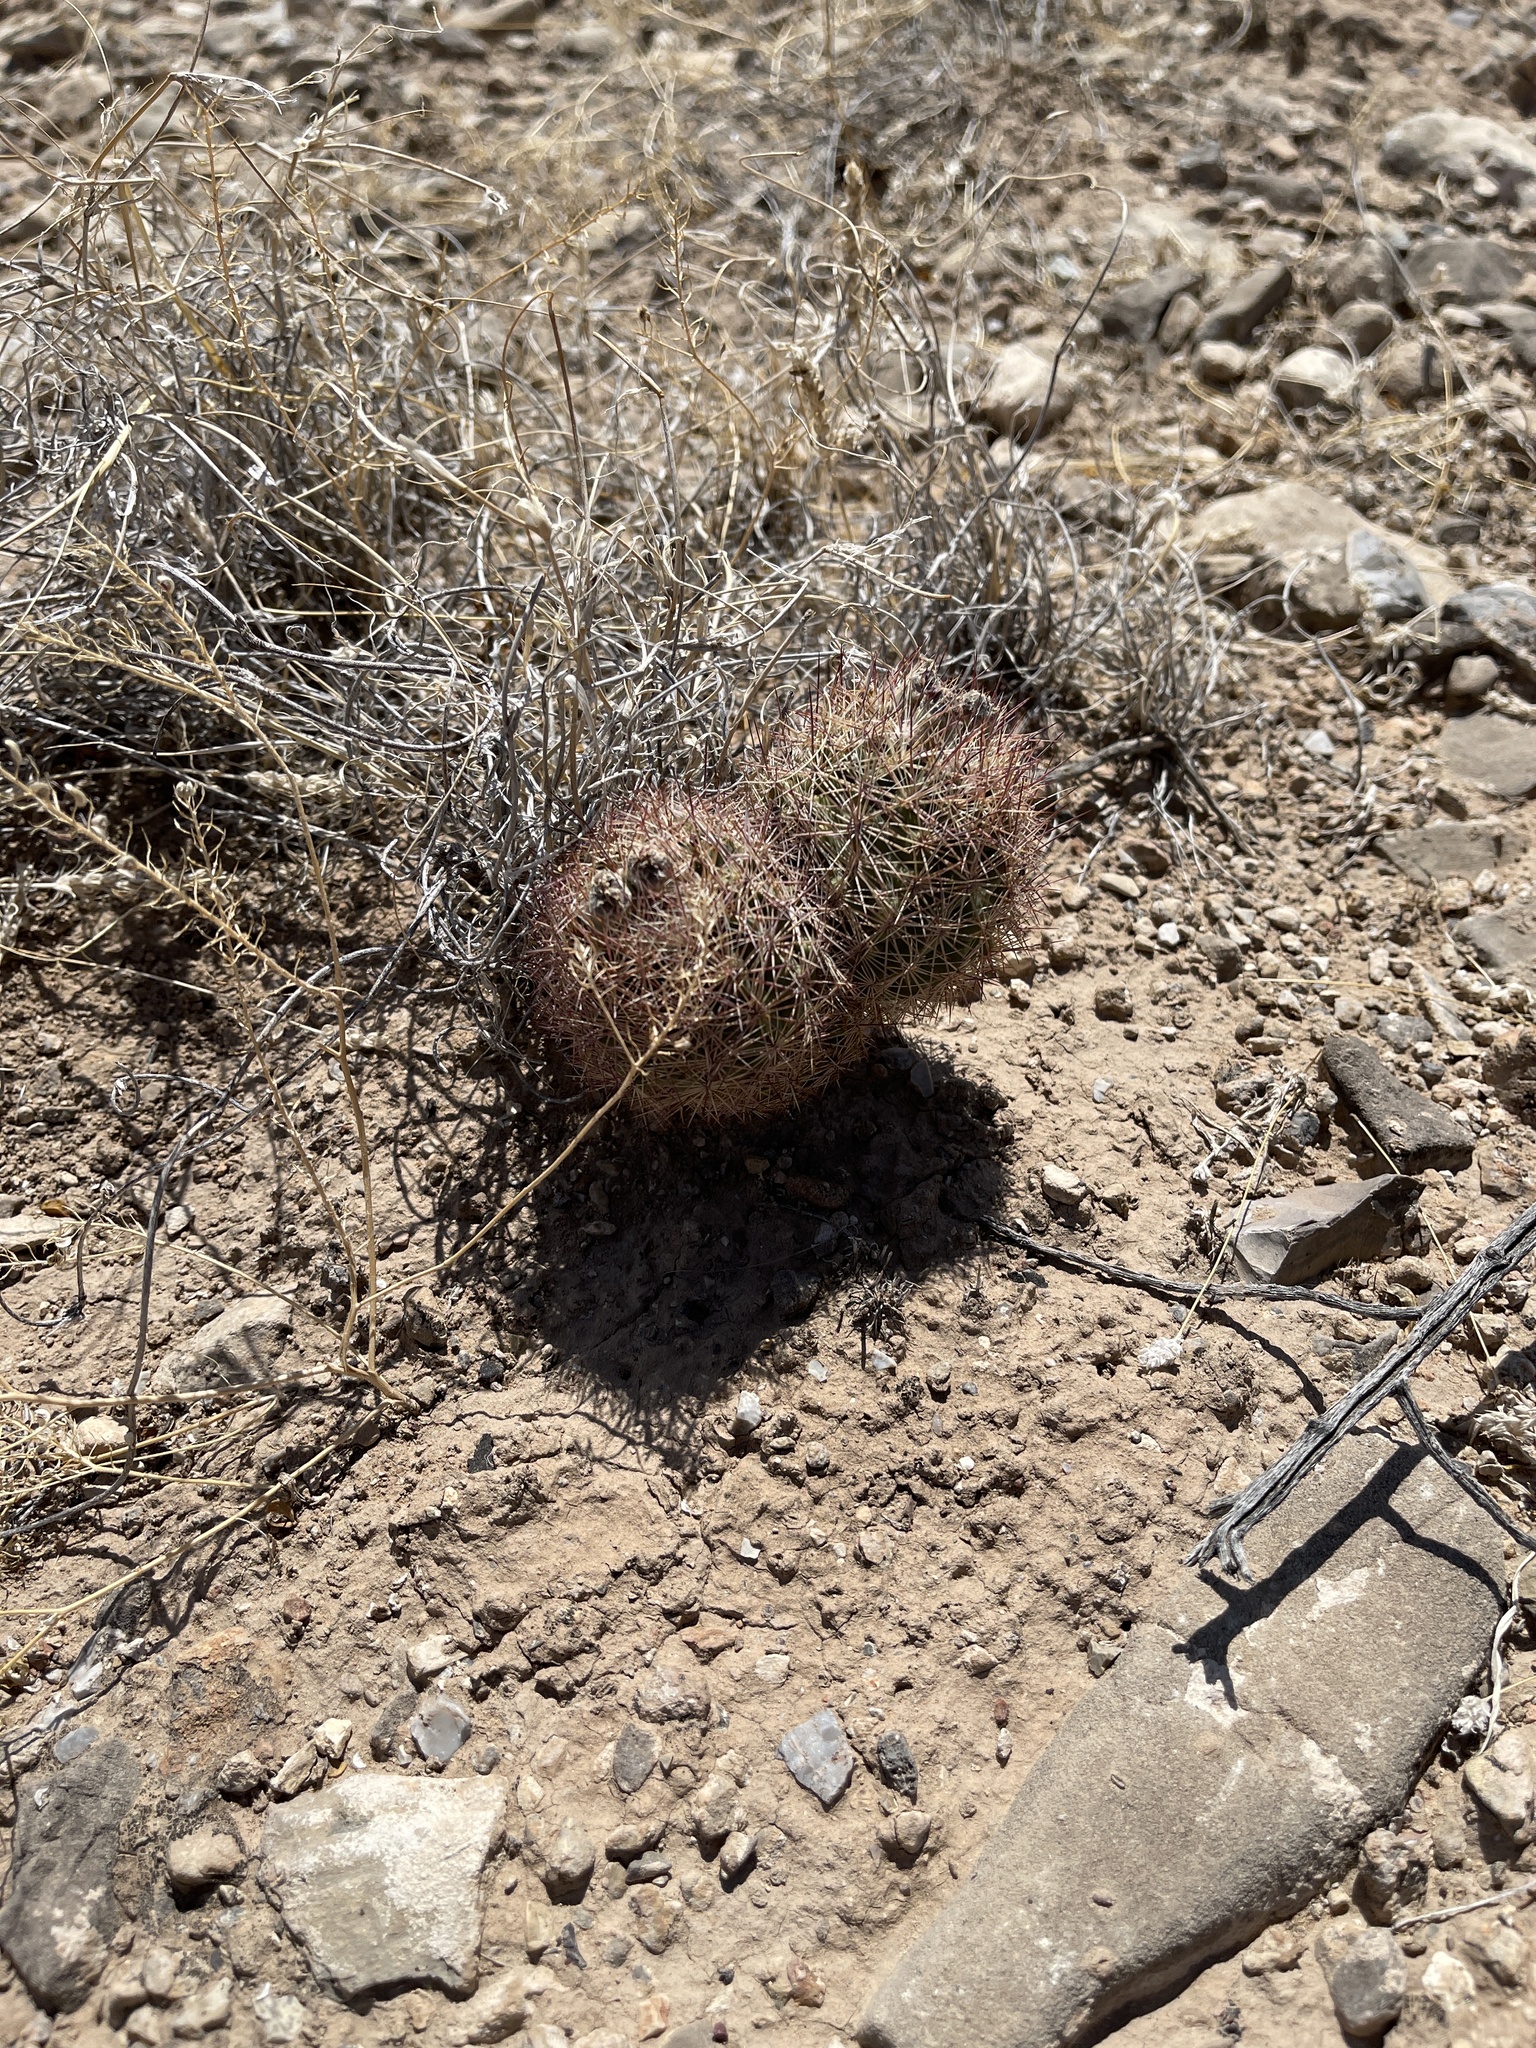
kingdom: Plantae
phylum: Tracheophyta
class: Magnoliopsida
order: Caryophyllales
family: Cactaceae
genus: Sclerocactus
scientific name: Sclerocactus intertextus
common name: White fish-hook cactus
